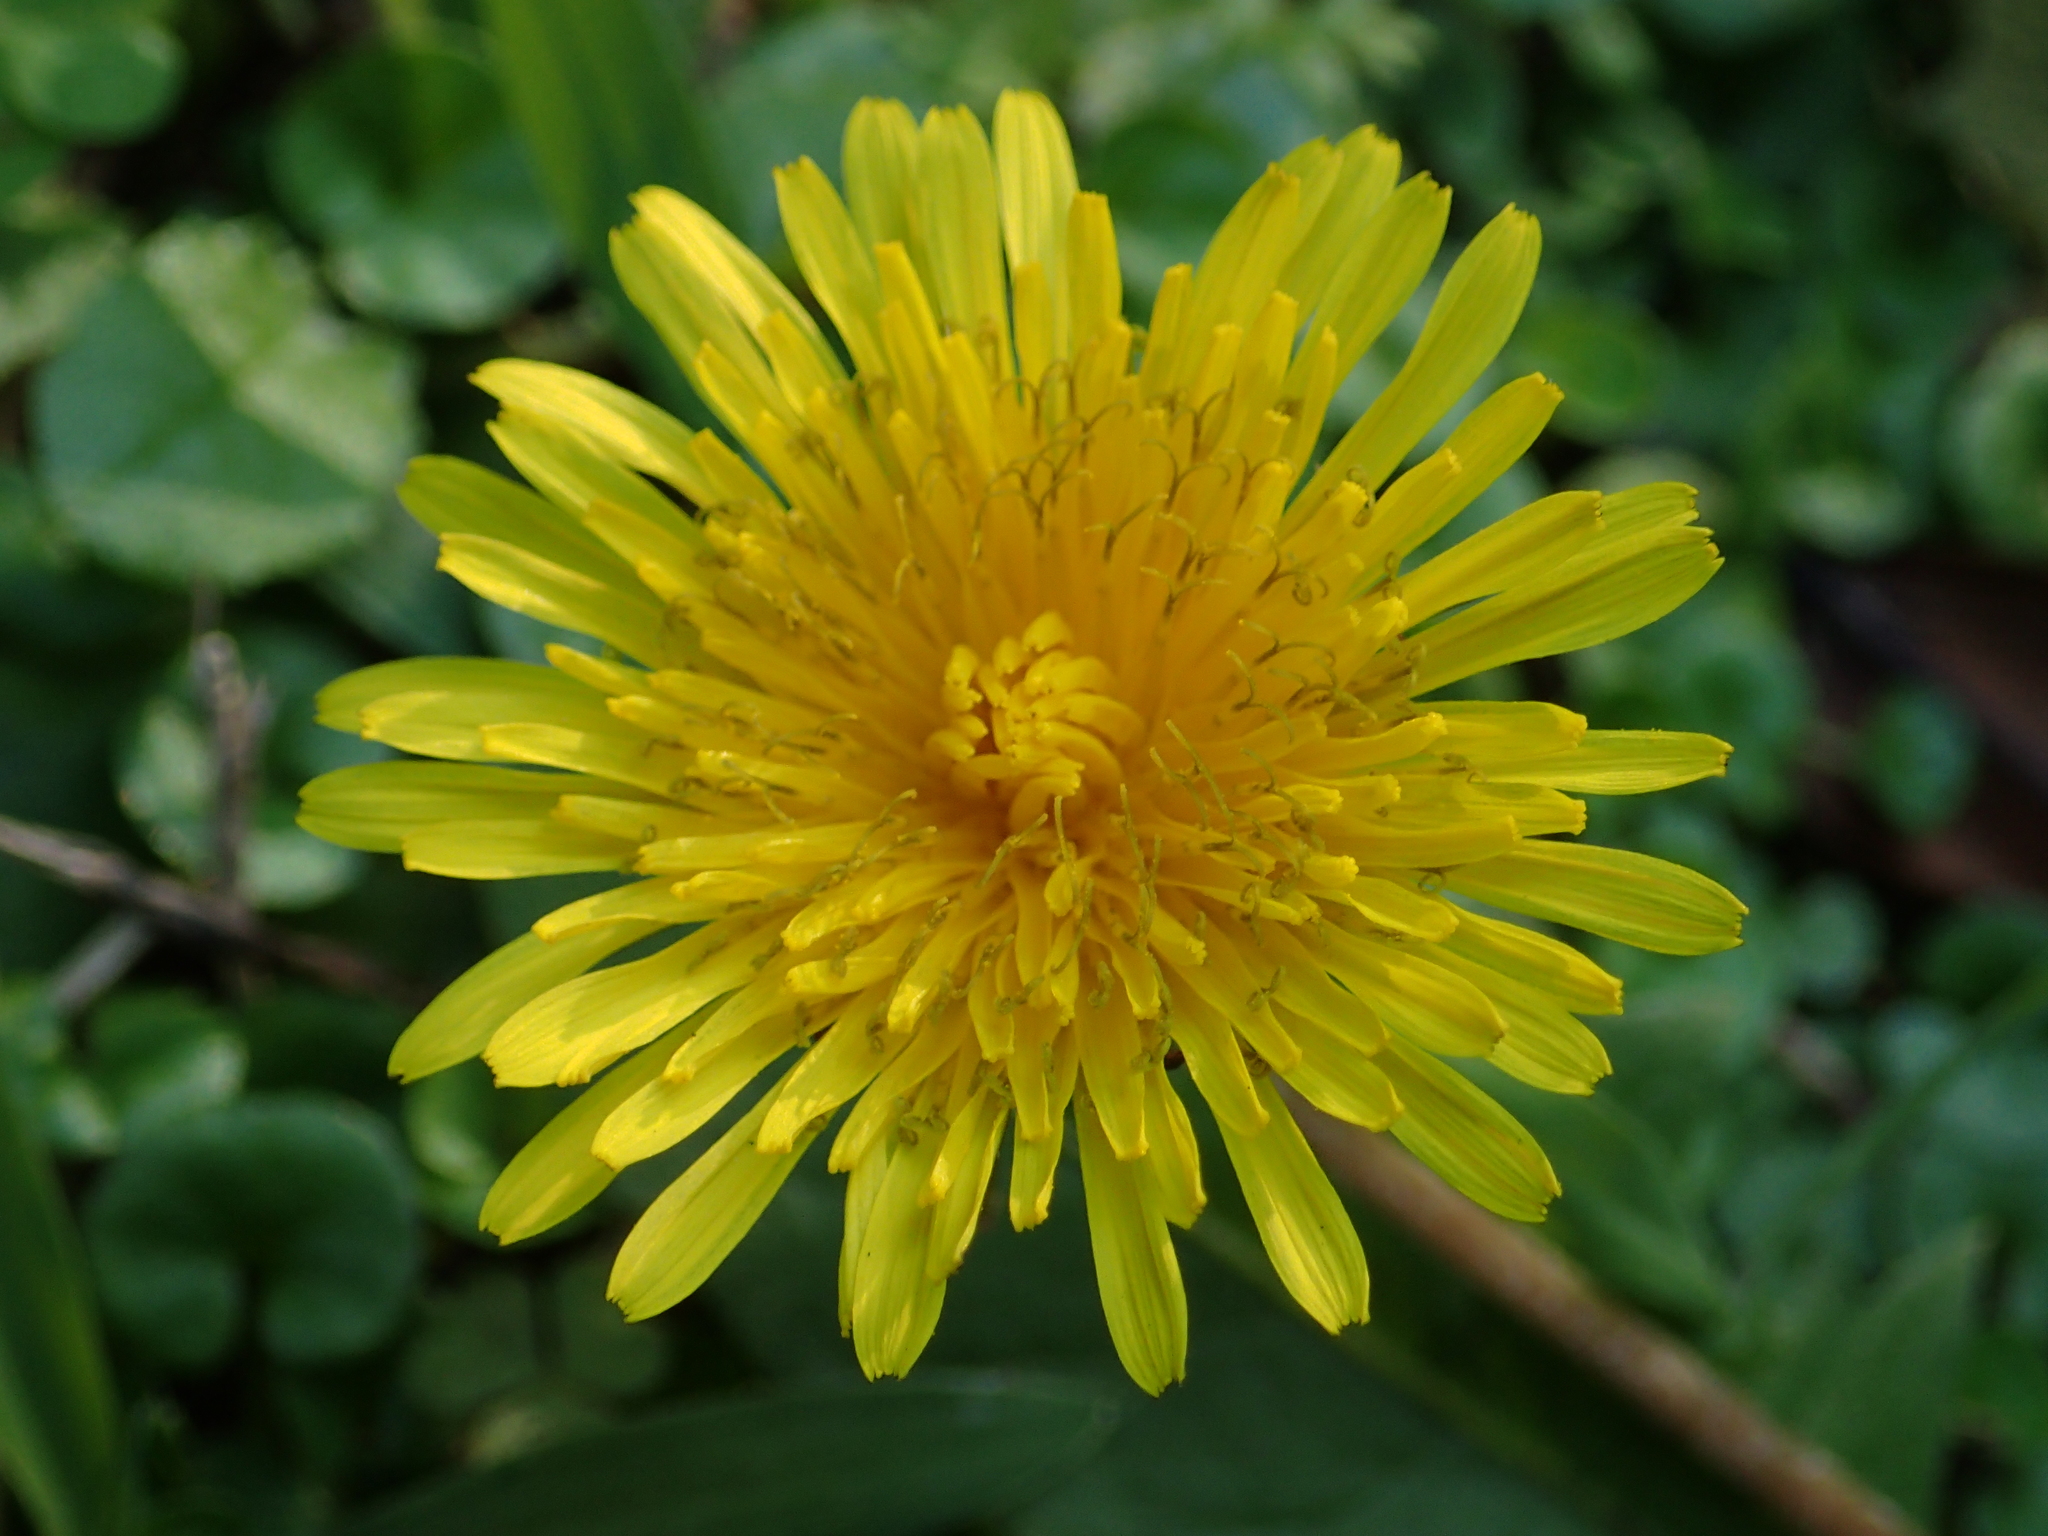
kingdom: Plantae
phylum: Tracheophyta
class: Magnoliopsida
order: Asterales
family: Asteraceae
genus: Taraxacum
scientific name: Taraxacum officinale
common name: Common dandelion
